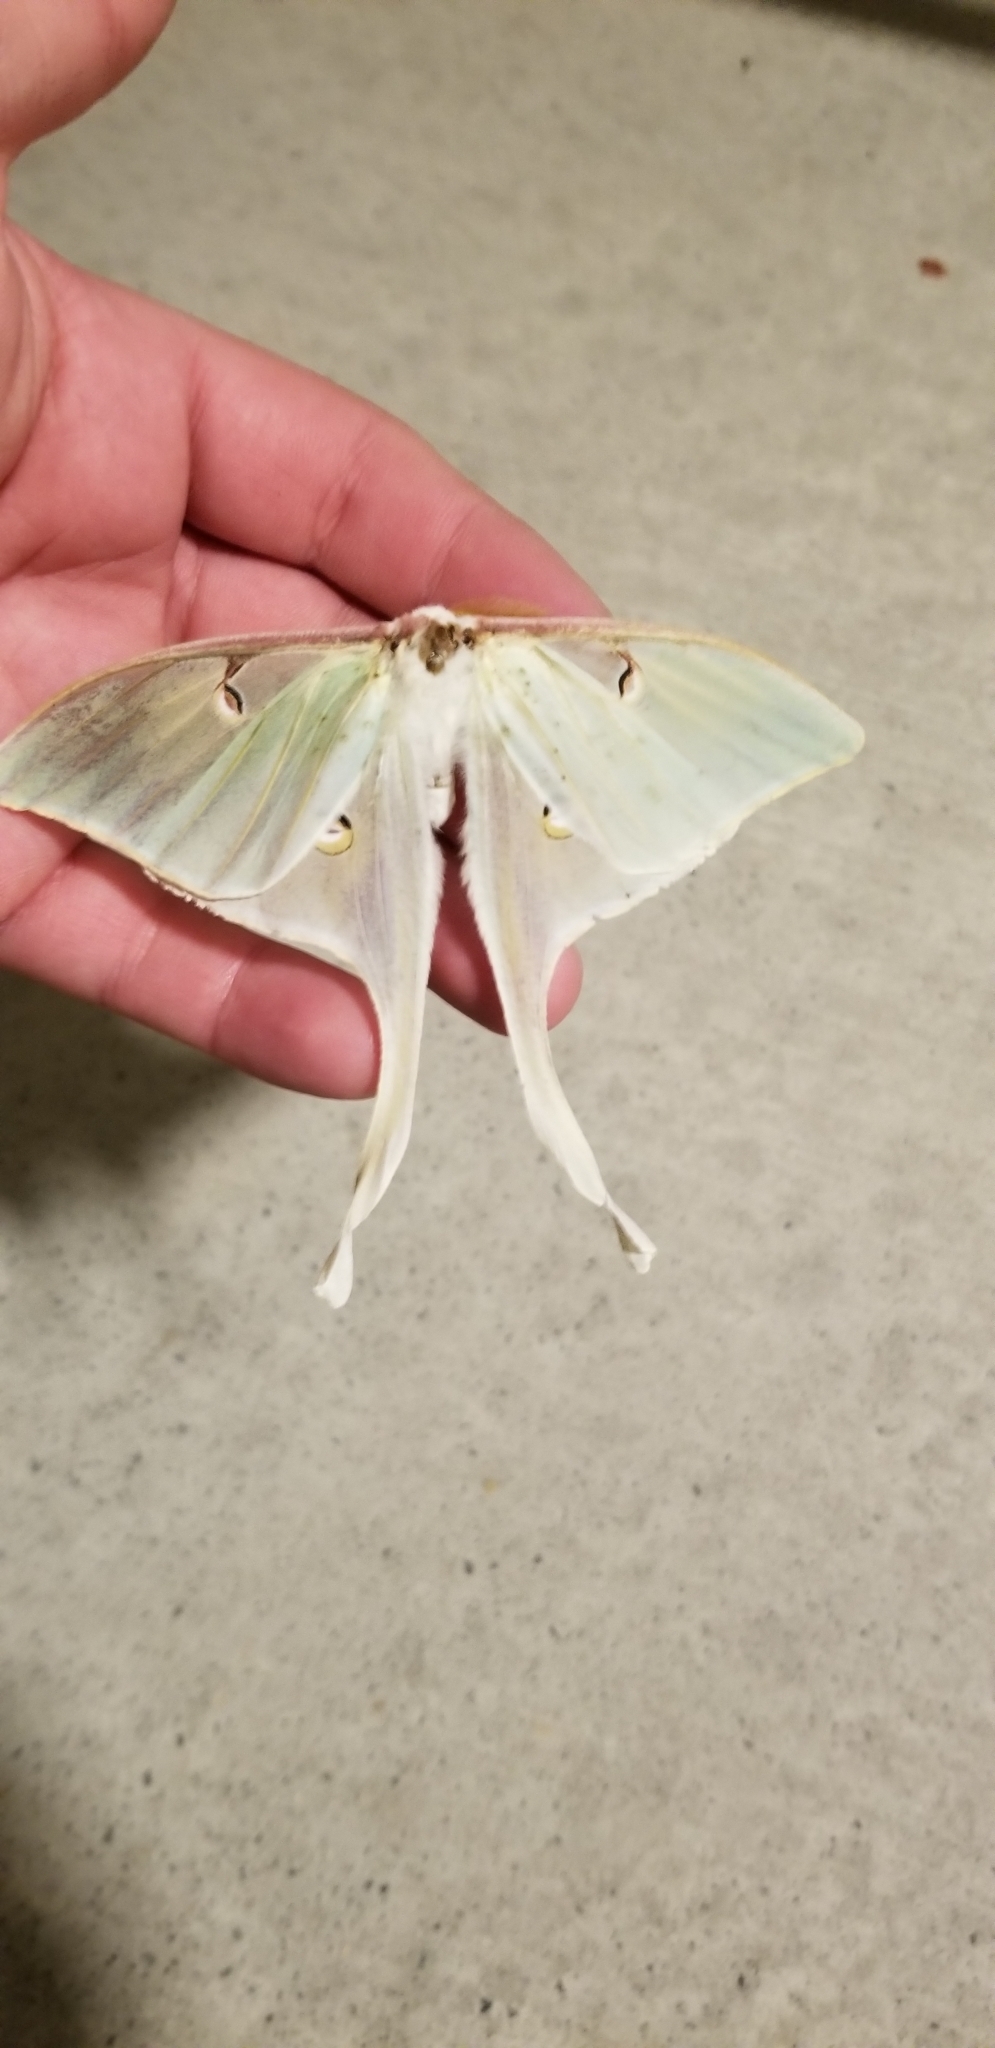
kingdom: Animalia
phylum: Arthropoda
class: Insecta
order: Lepidoptera
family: Saturniidae
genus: Actias
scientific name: Actias luna
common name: Luna moth
